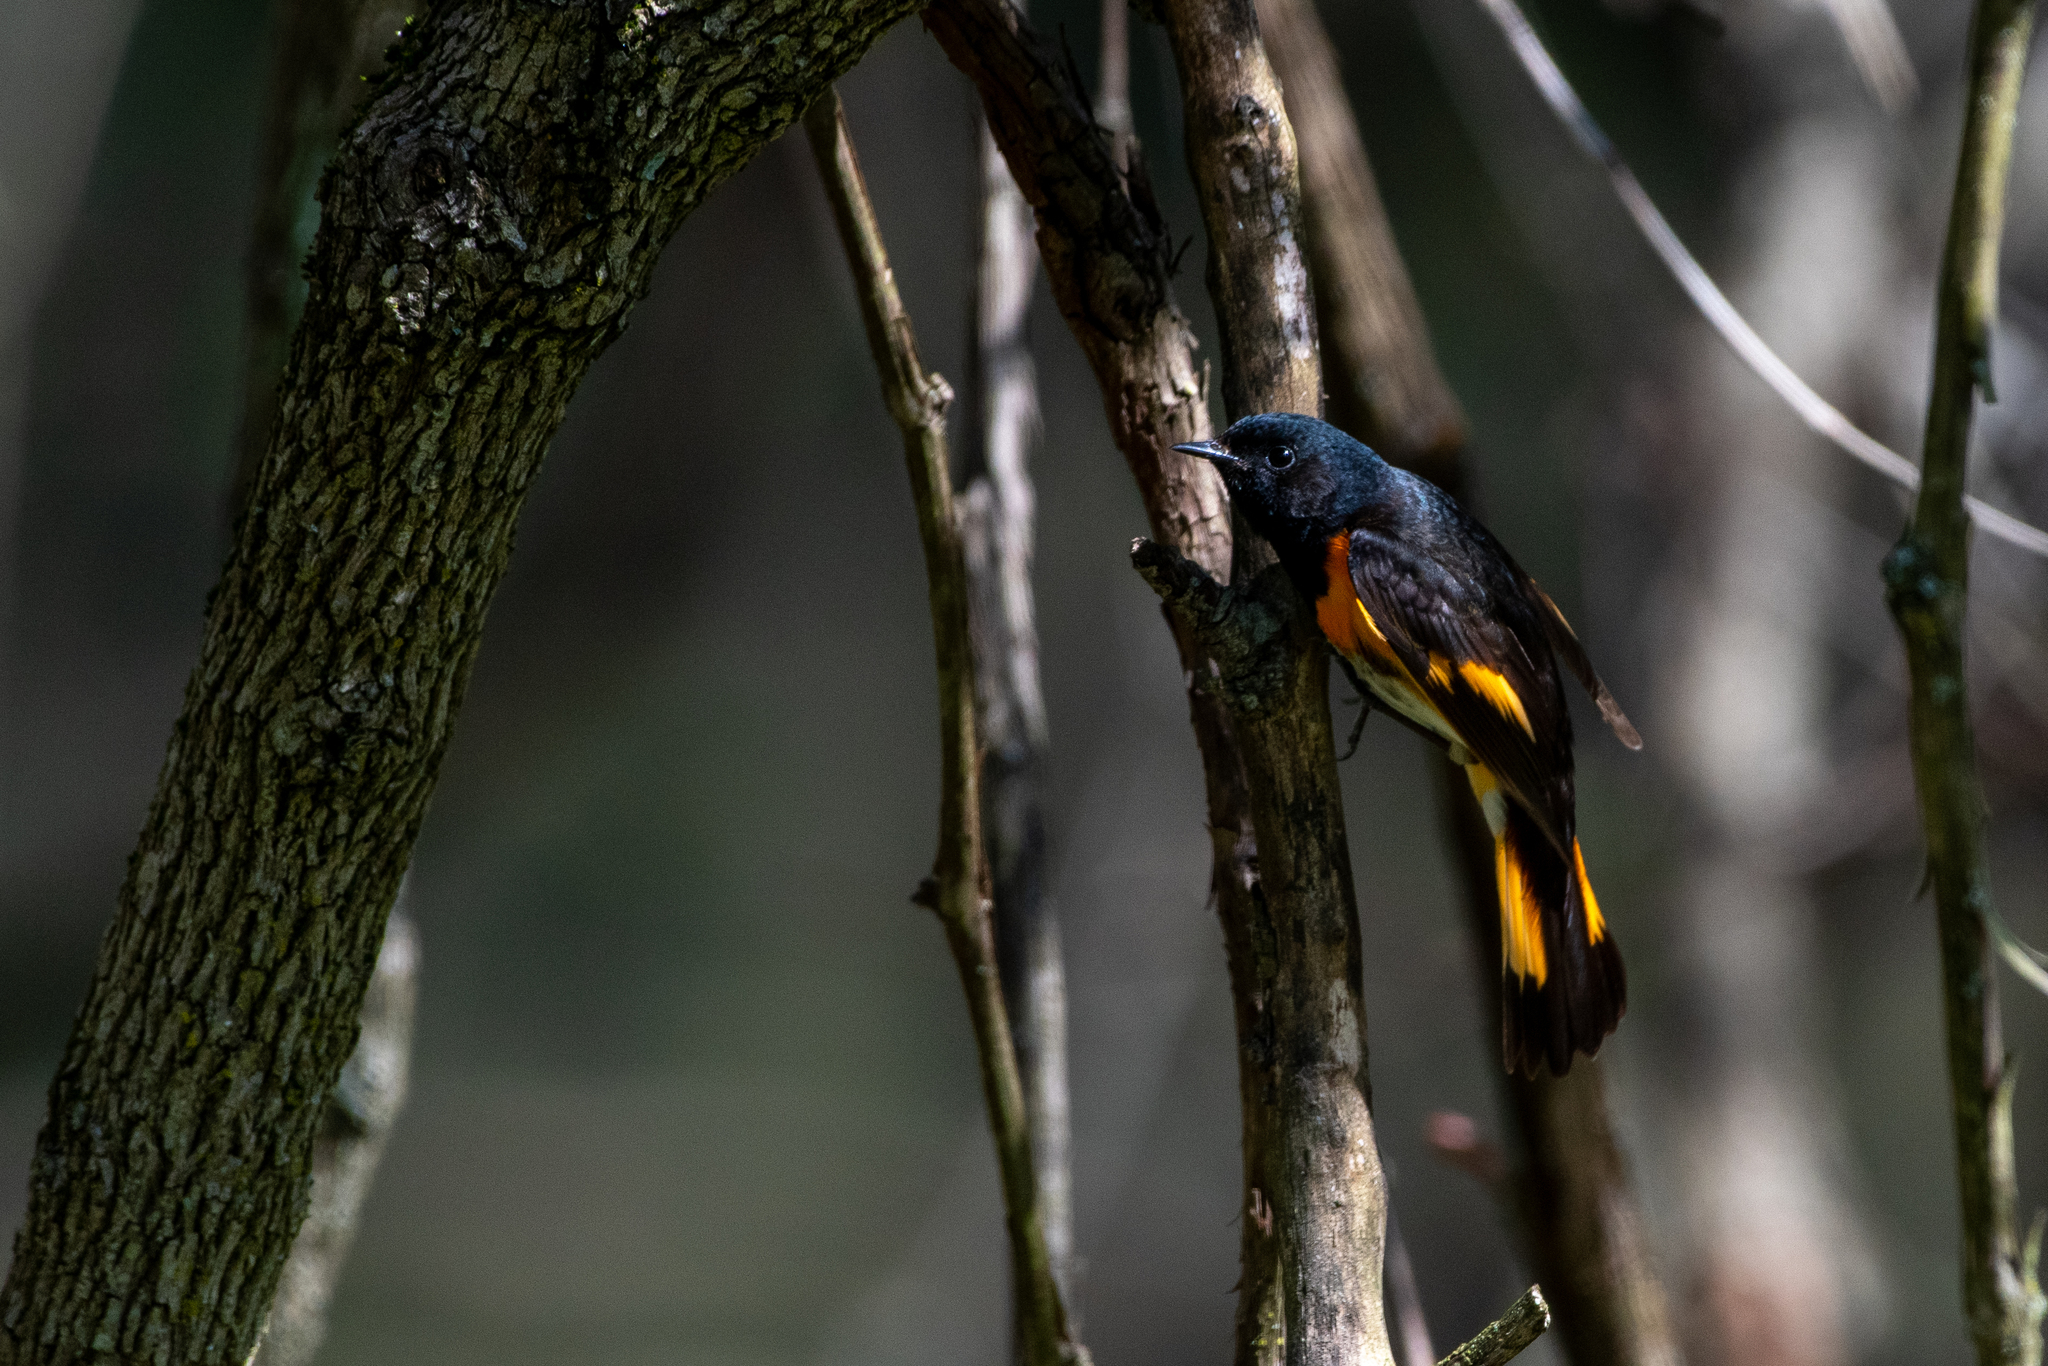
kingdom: Animalia
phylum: Chordata
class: Aves
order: Passeriformes
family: Parulidae
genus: Setophaga
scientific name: Setophaga ruticilla
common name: American redstart
